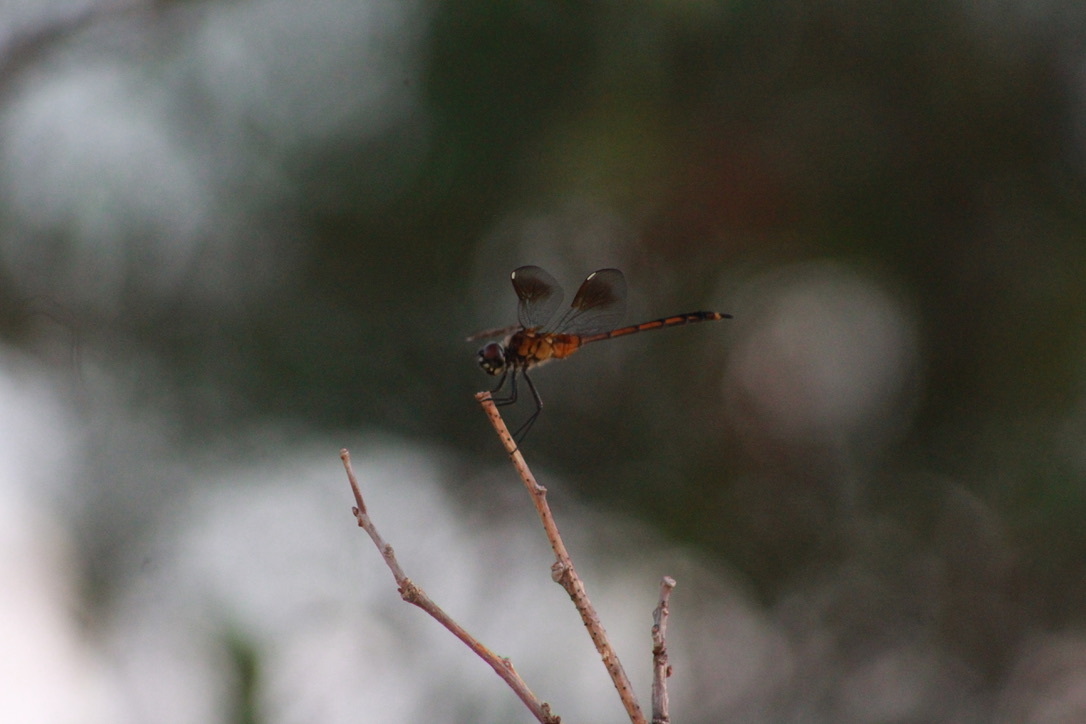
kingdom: Animalia
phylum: Arthropoda
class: Insecta
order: Odonata
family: Libellulidae
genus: Brachymesia
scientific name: Brachymesia gravida
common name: Four-spotted pennant
